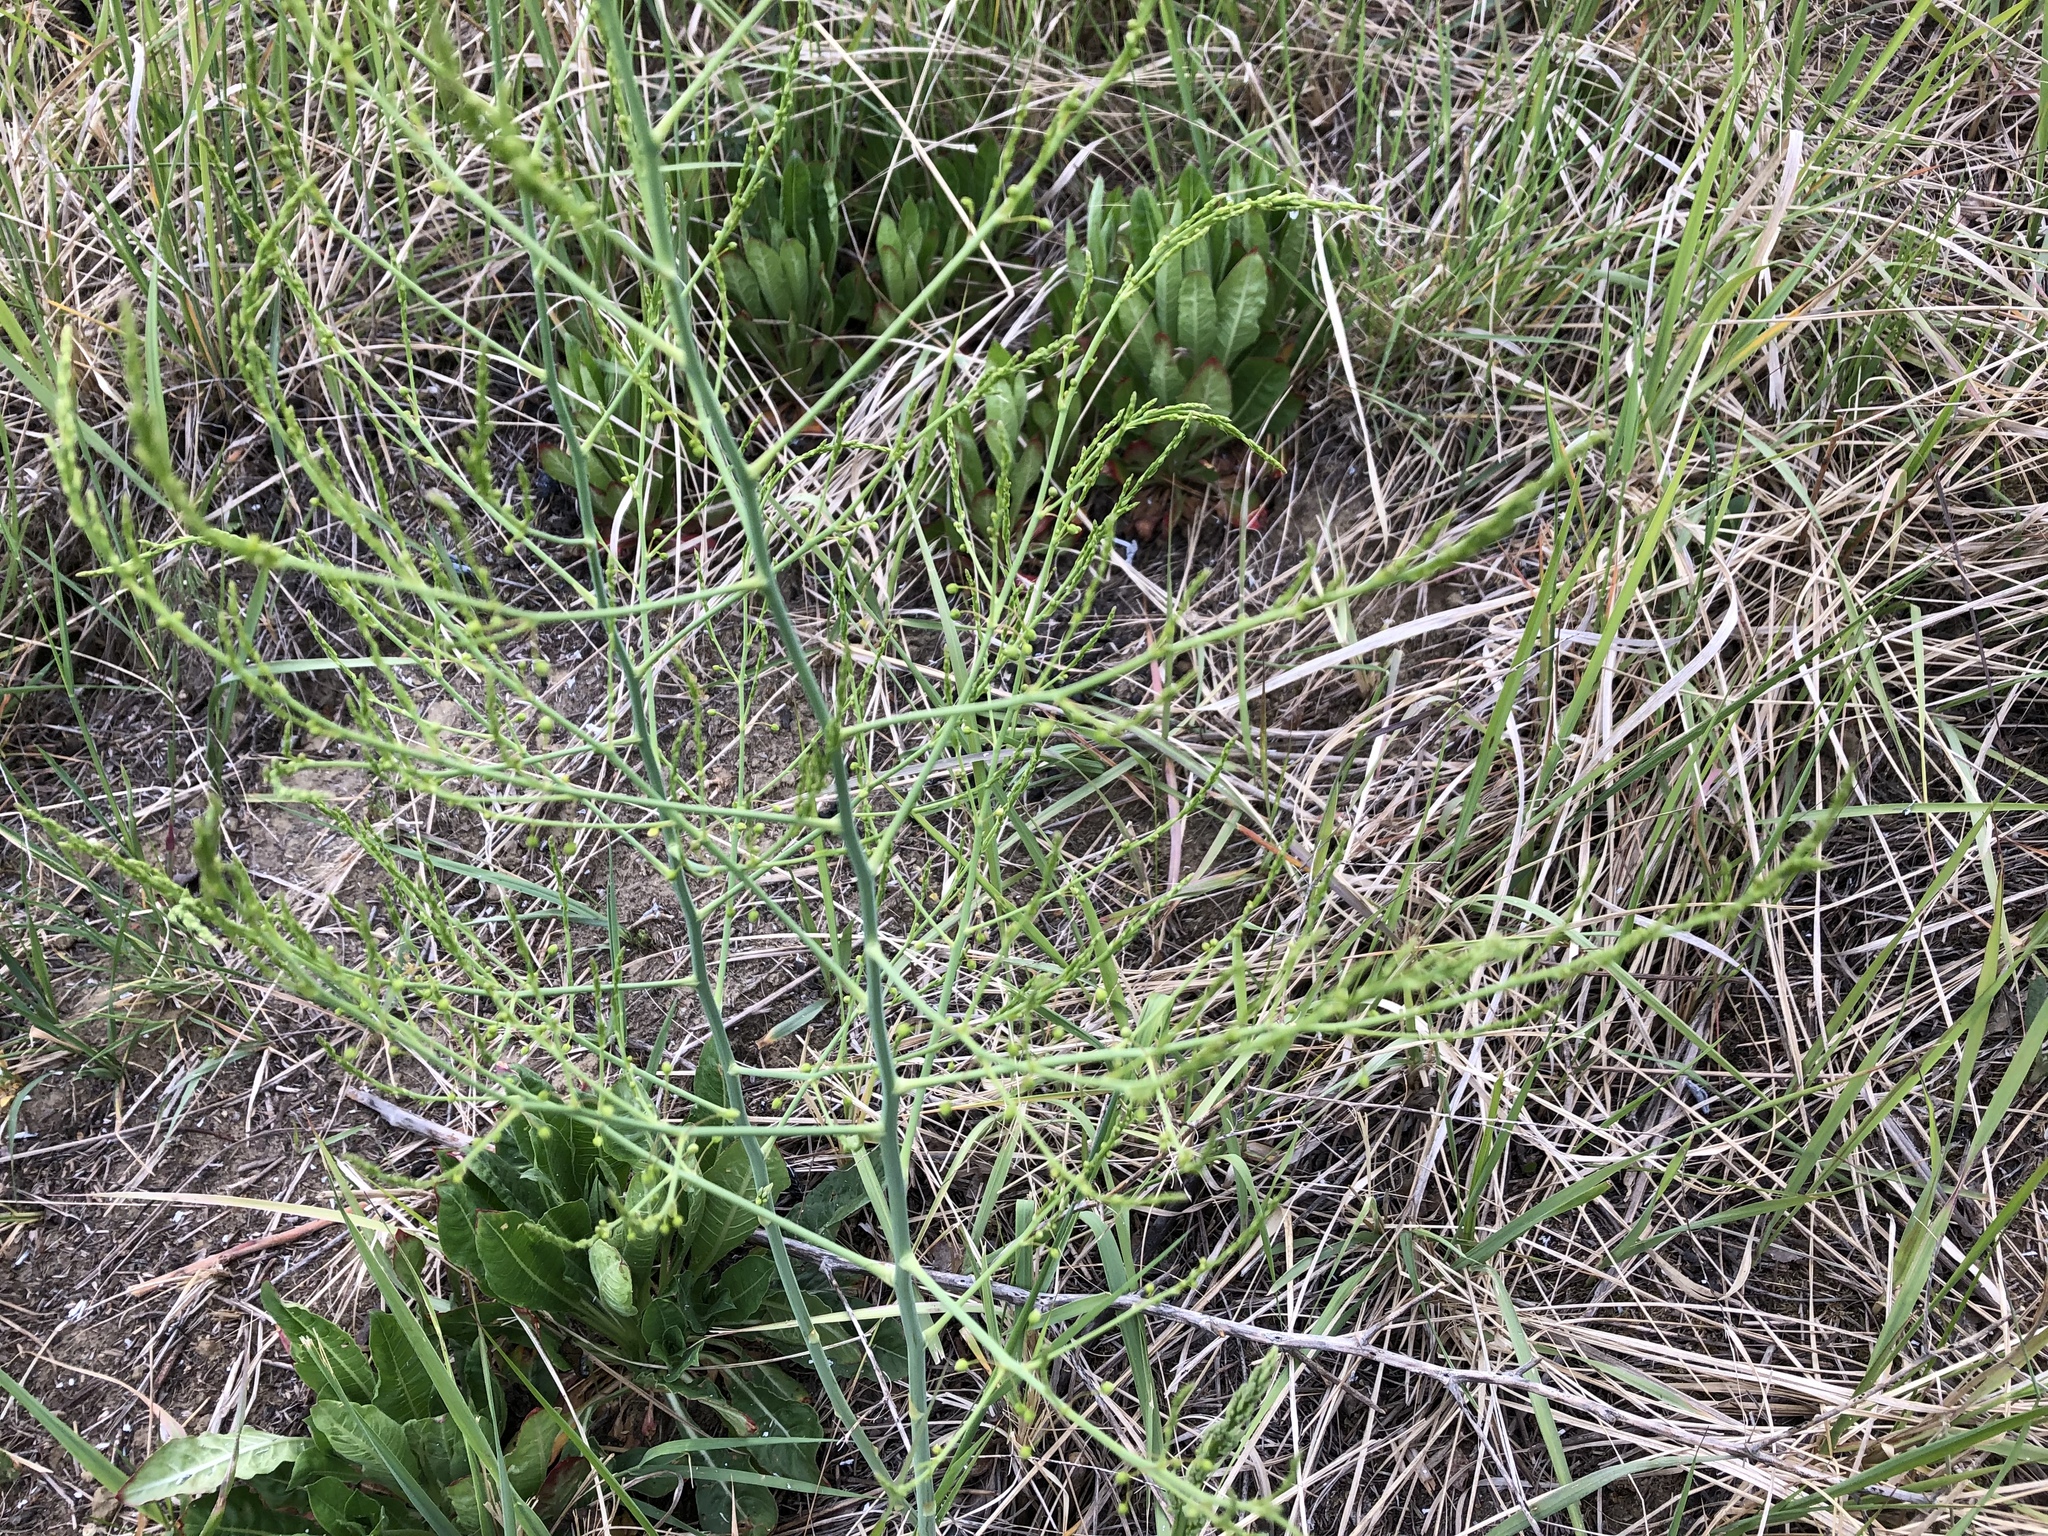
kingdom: Plantae
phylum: Tracheophyta
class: Liliopsida
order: Asparagales
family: Asparagaceae
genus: Asparagus
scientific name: Asparagus officinalis
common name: Garden asparagus
